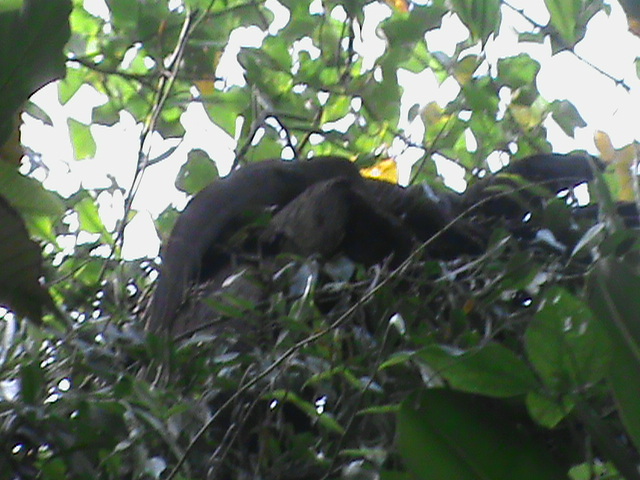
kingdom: Animalia
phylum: Chordata
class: Squamata
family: Varanidae
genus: Varanus
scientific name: Varanus bengalensis
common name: Bengal monitor
